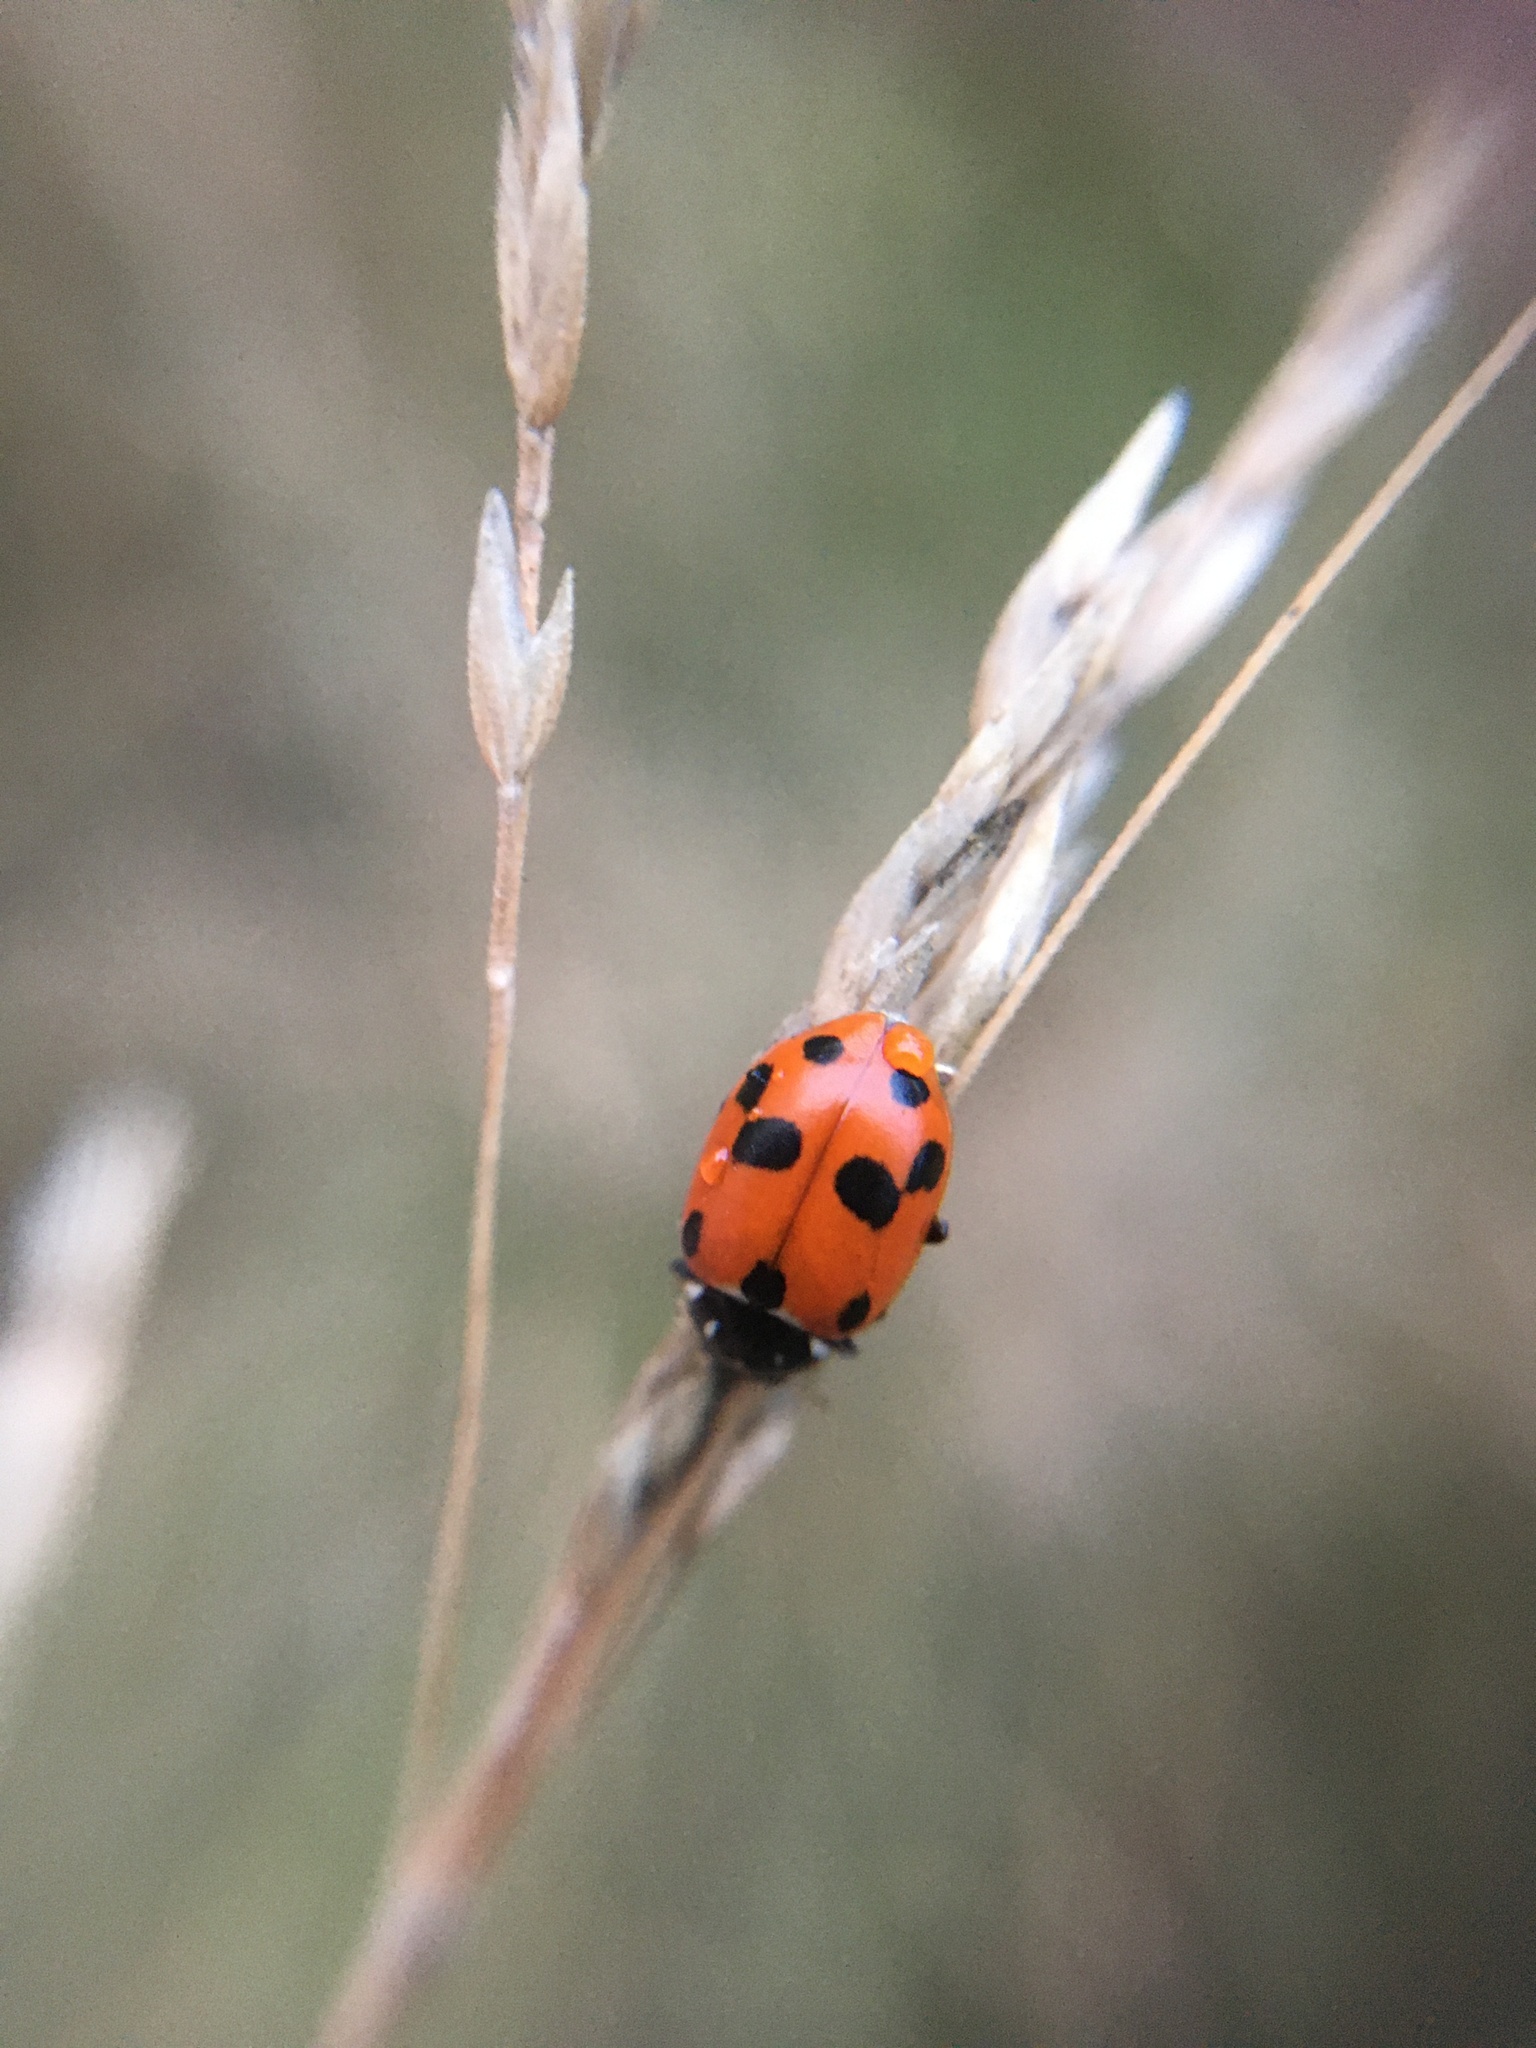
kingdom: Animalia
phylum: Arthropoda
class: Insecta
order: Coleoptera
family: Coccinellidae
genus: Hippodamia
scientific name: Hippodamia variegata
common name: Ladybird beetle
